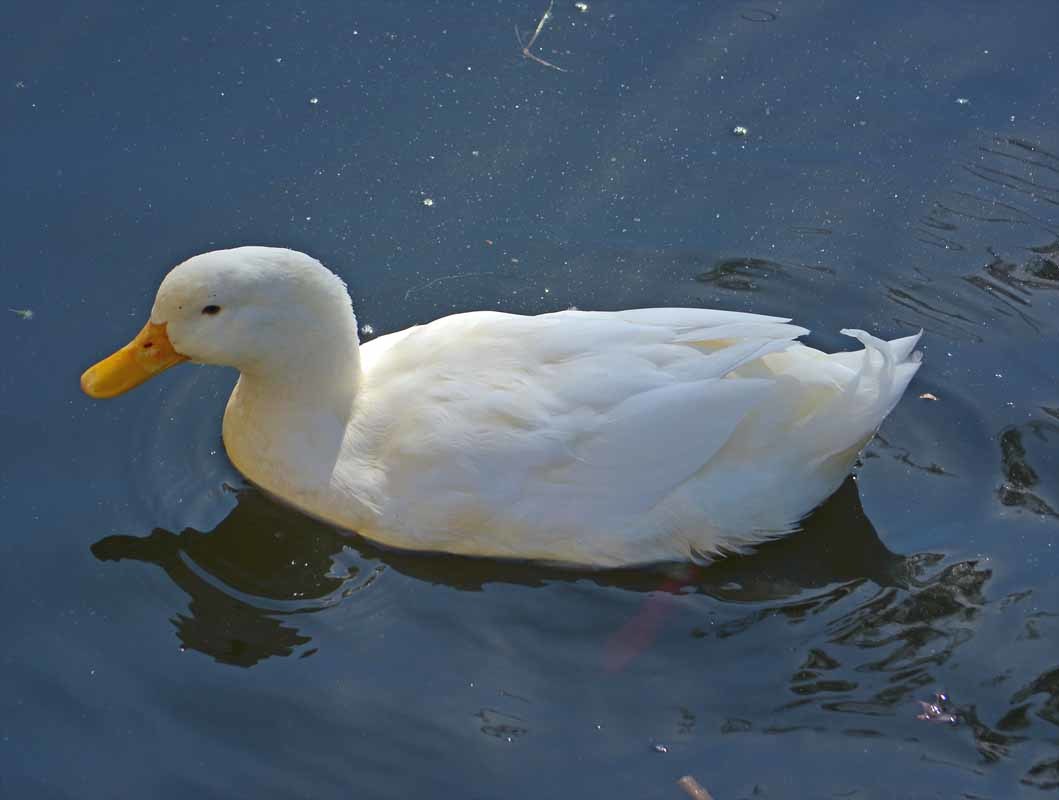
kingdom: Animalia
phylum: Chordata
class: Aves
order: Anseriformes
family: Anatidae
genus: Anas
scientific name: Anas platyrhynchos
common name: Mallard
